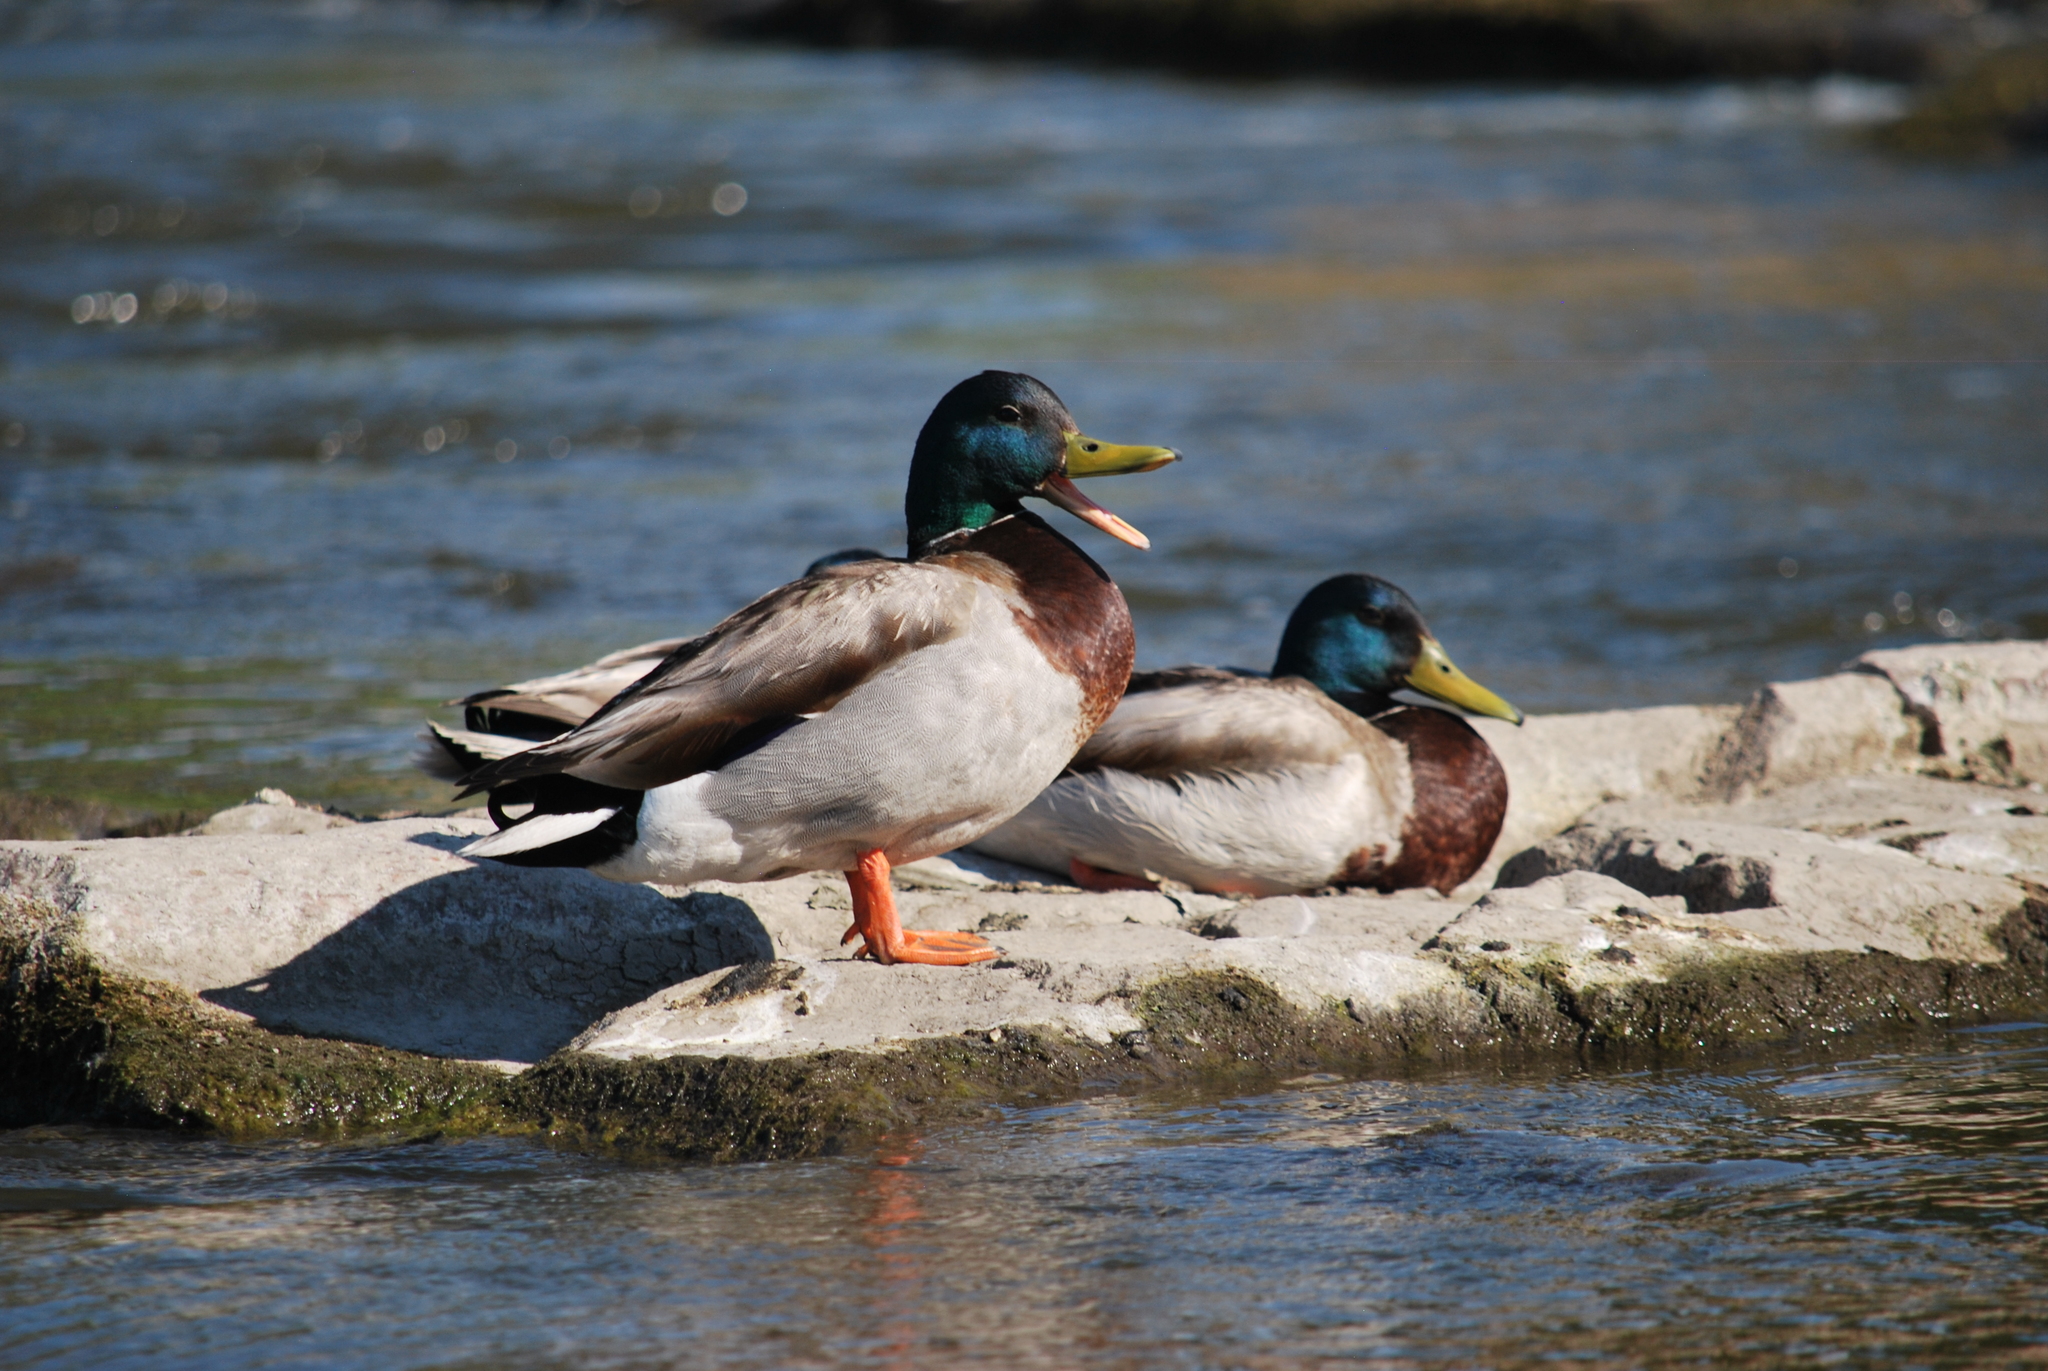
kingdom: Animalia
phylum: Chordata
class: Aves
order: Anseriformes
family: Anatidae
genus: Anas
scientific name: Anas platyrhynchos
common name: Mallard
